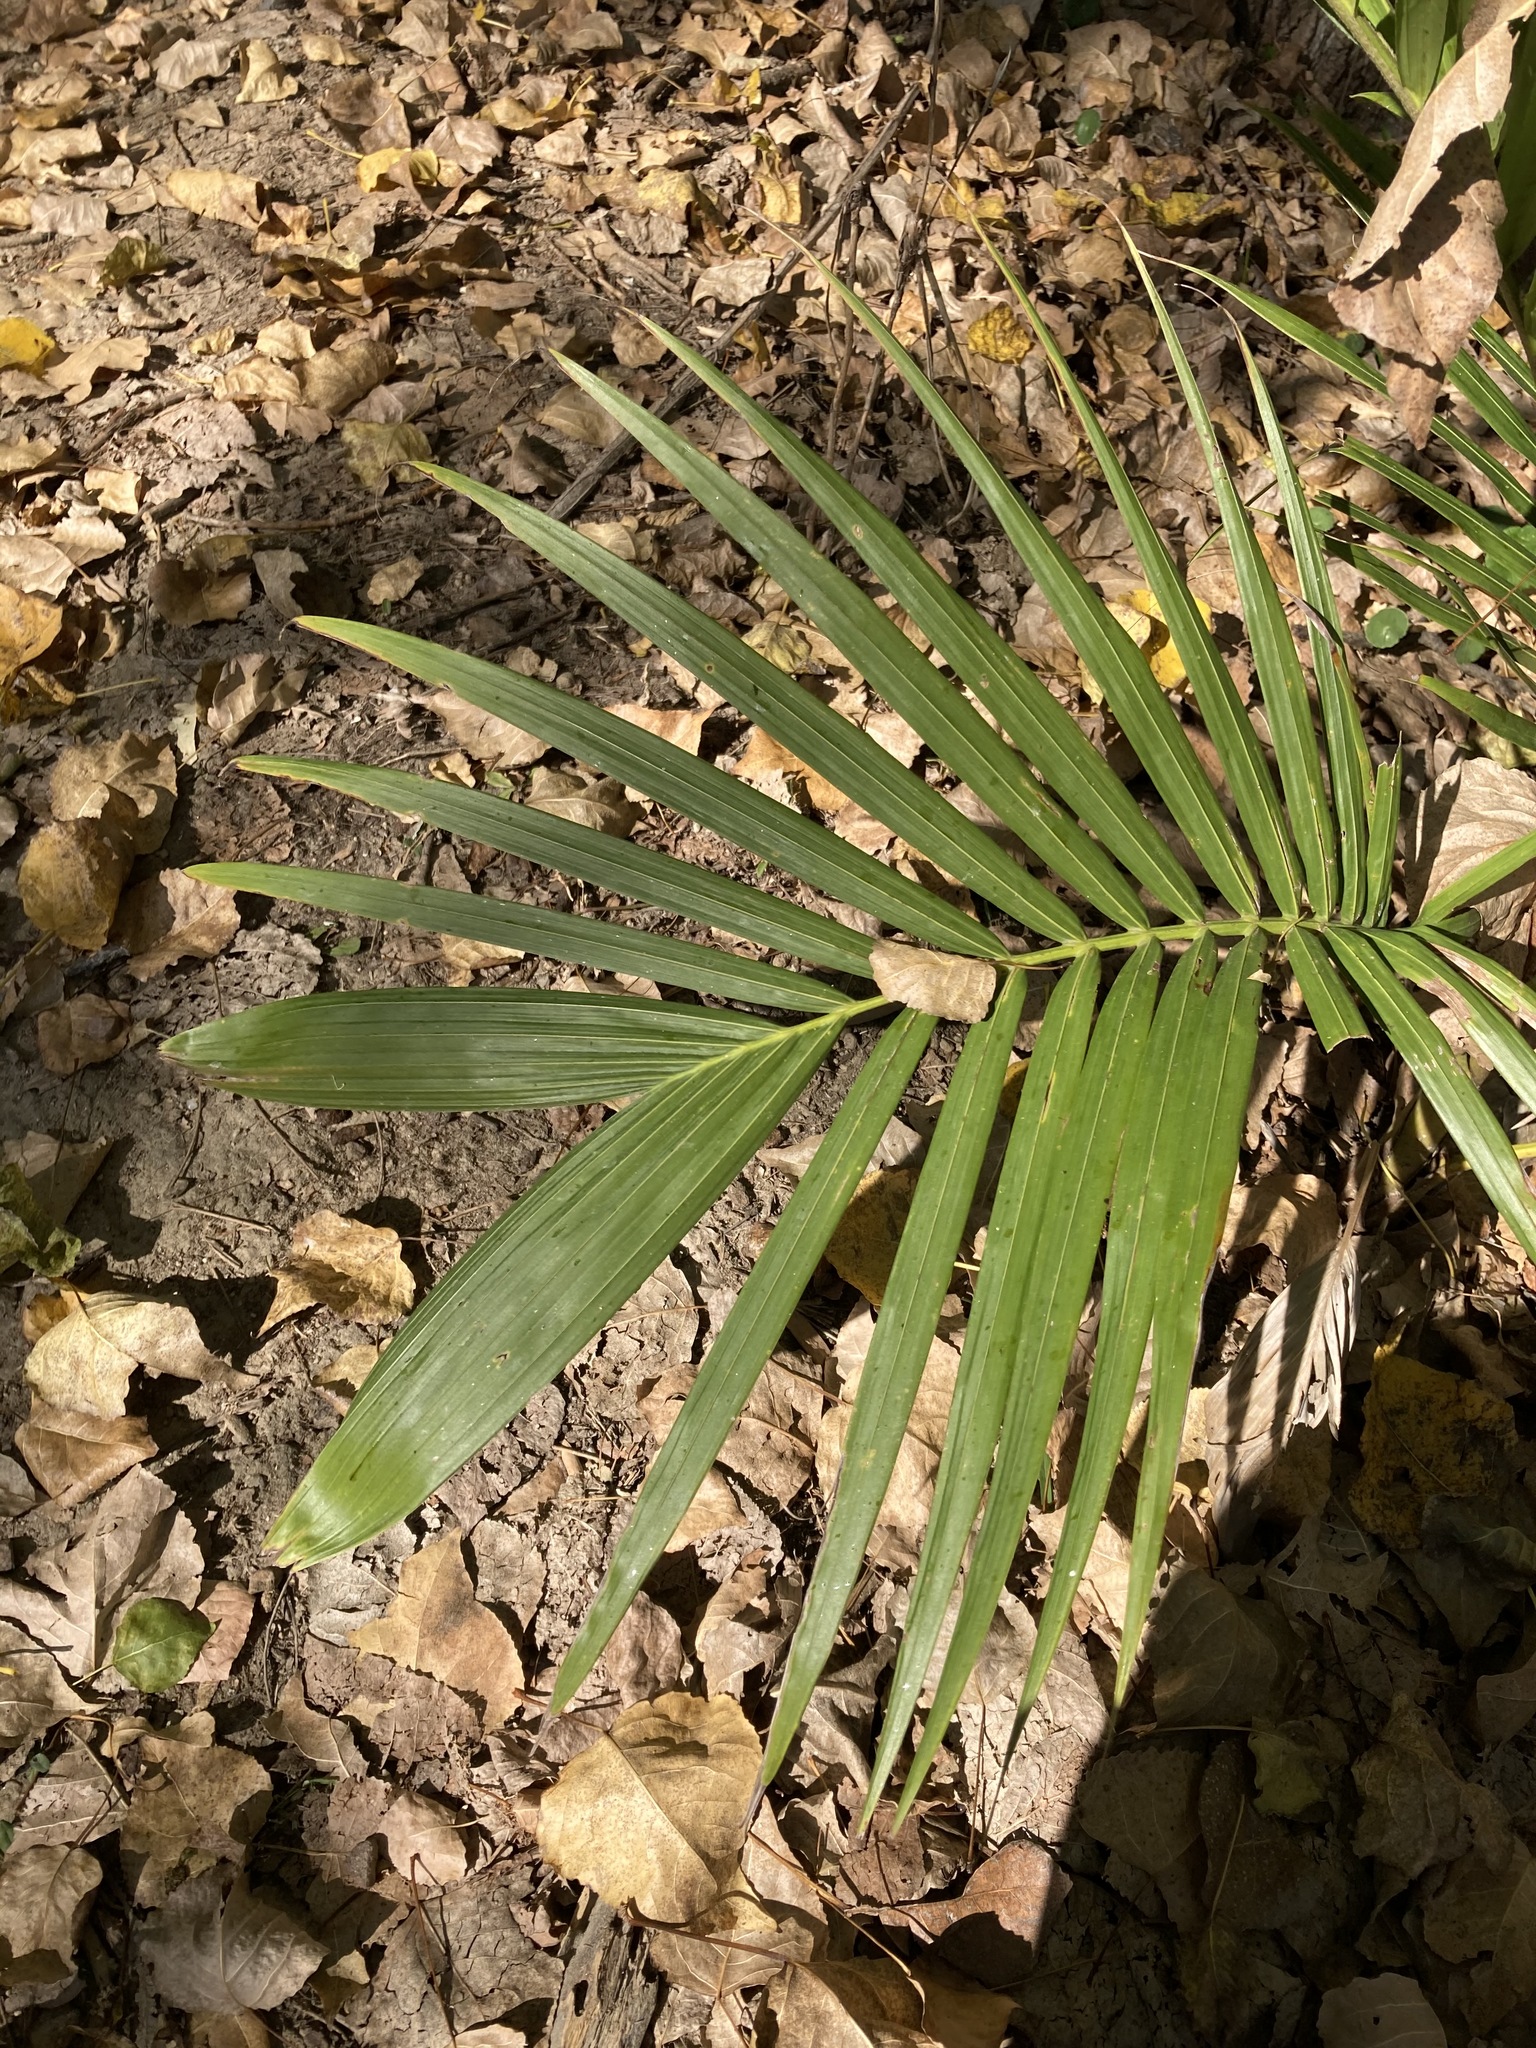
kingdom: Plantae
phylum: Tracheophyta
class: Liliopsida
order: Arecales
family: Arecaceae
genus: Archontophoenix
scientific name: Archontophoenix cunninghamiana
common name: Piccabeen bangalow palm
